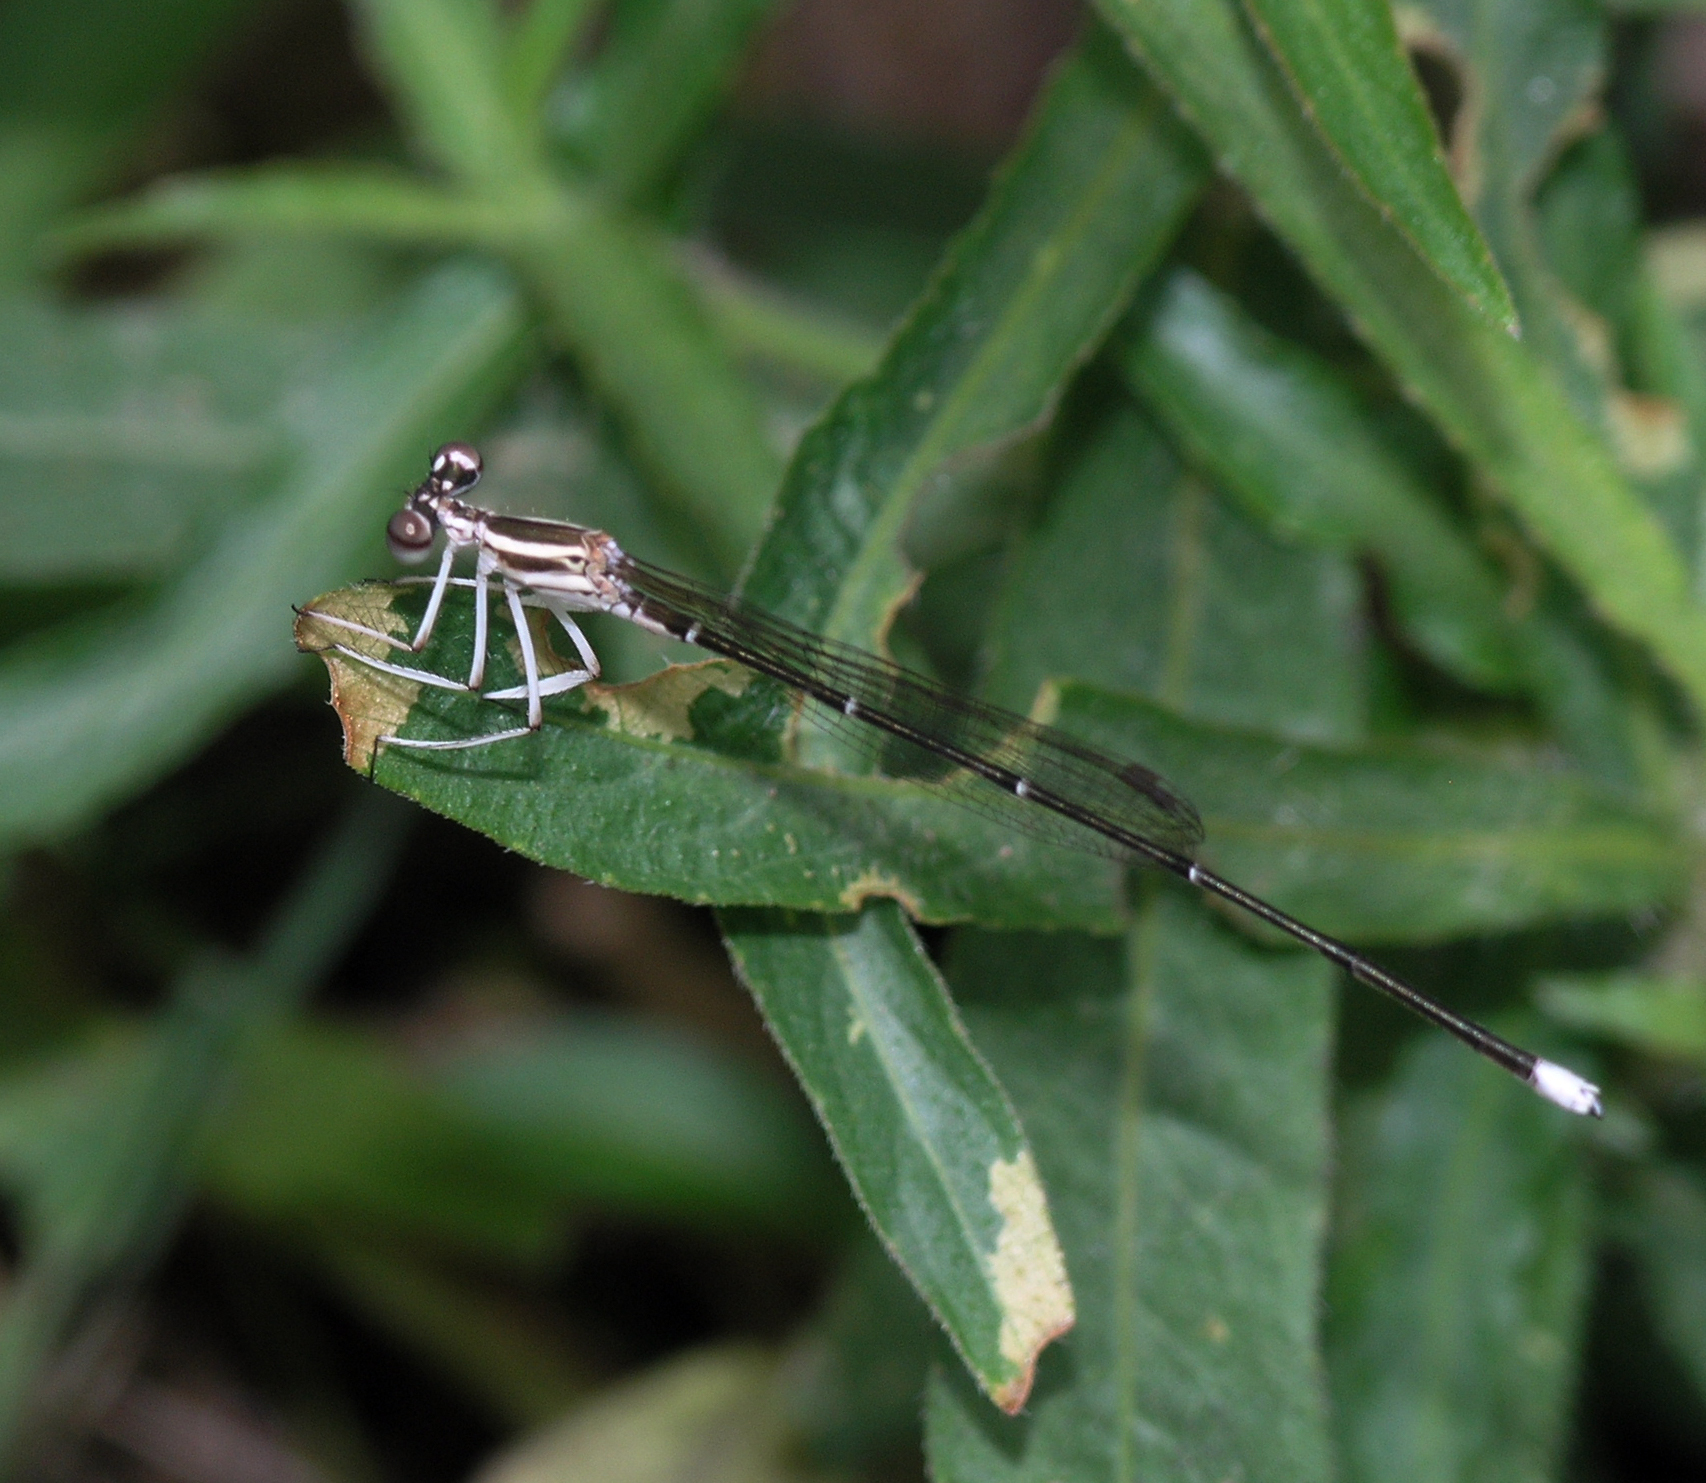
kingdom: Animalia
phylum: Arthropoda
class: Insecta
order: Odonata
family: Platycnemididae
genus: Pseudocopera
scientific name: Pseudocopera ciliata
